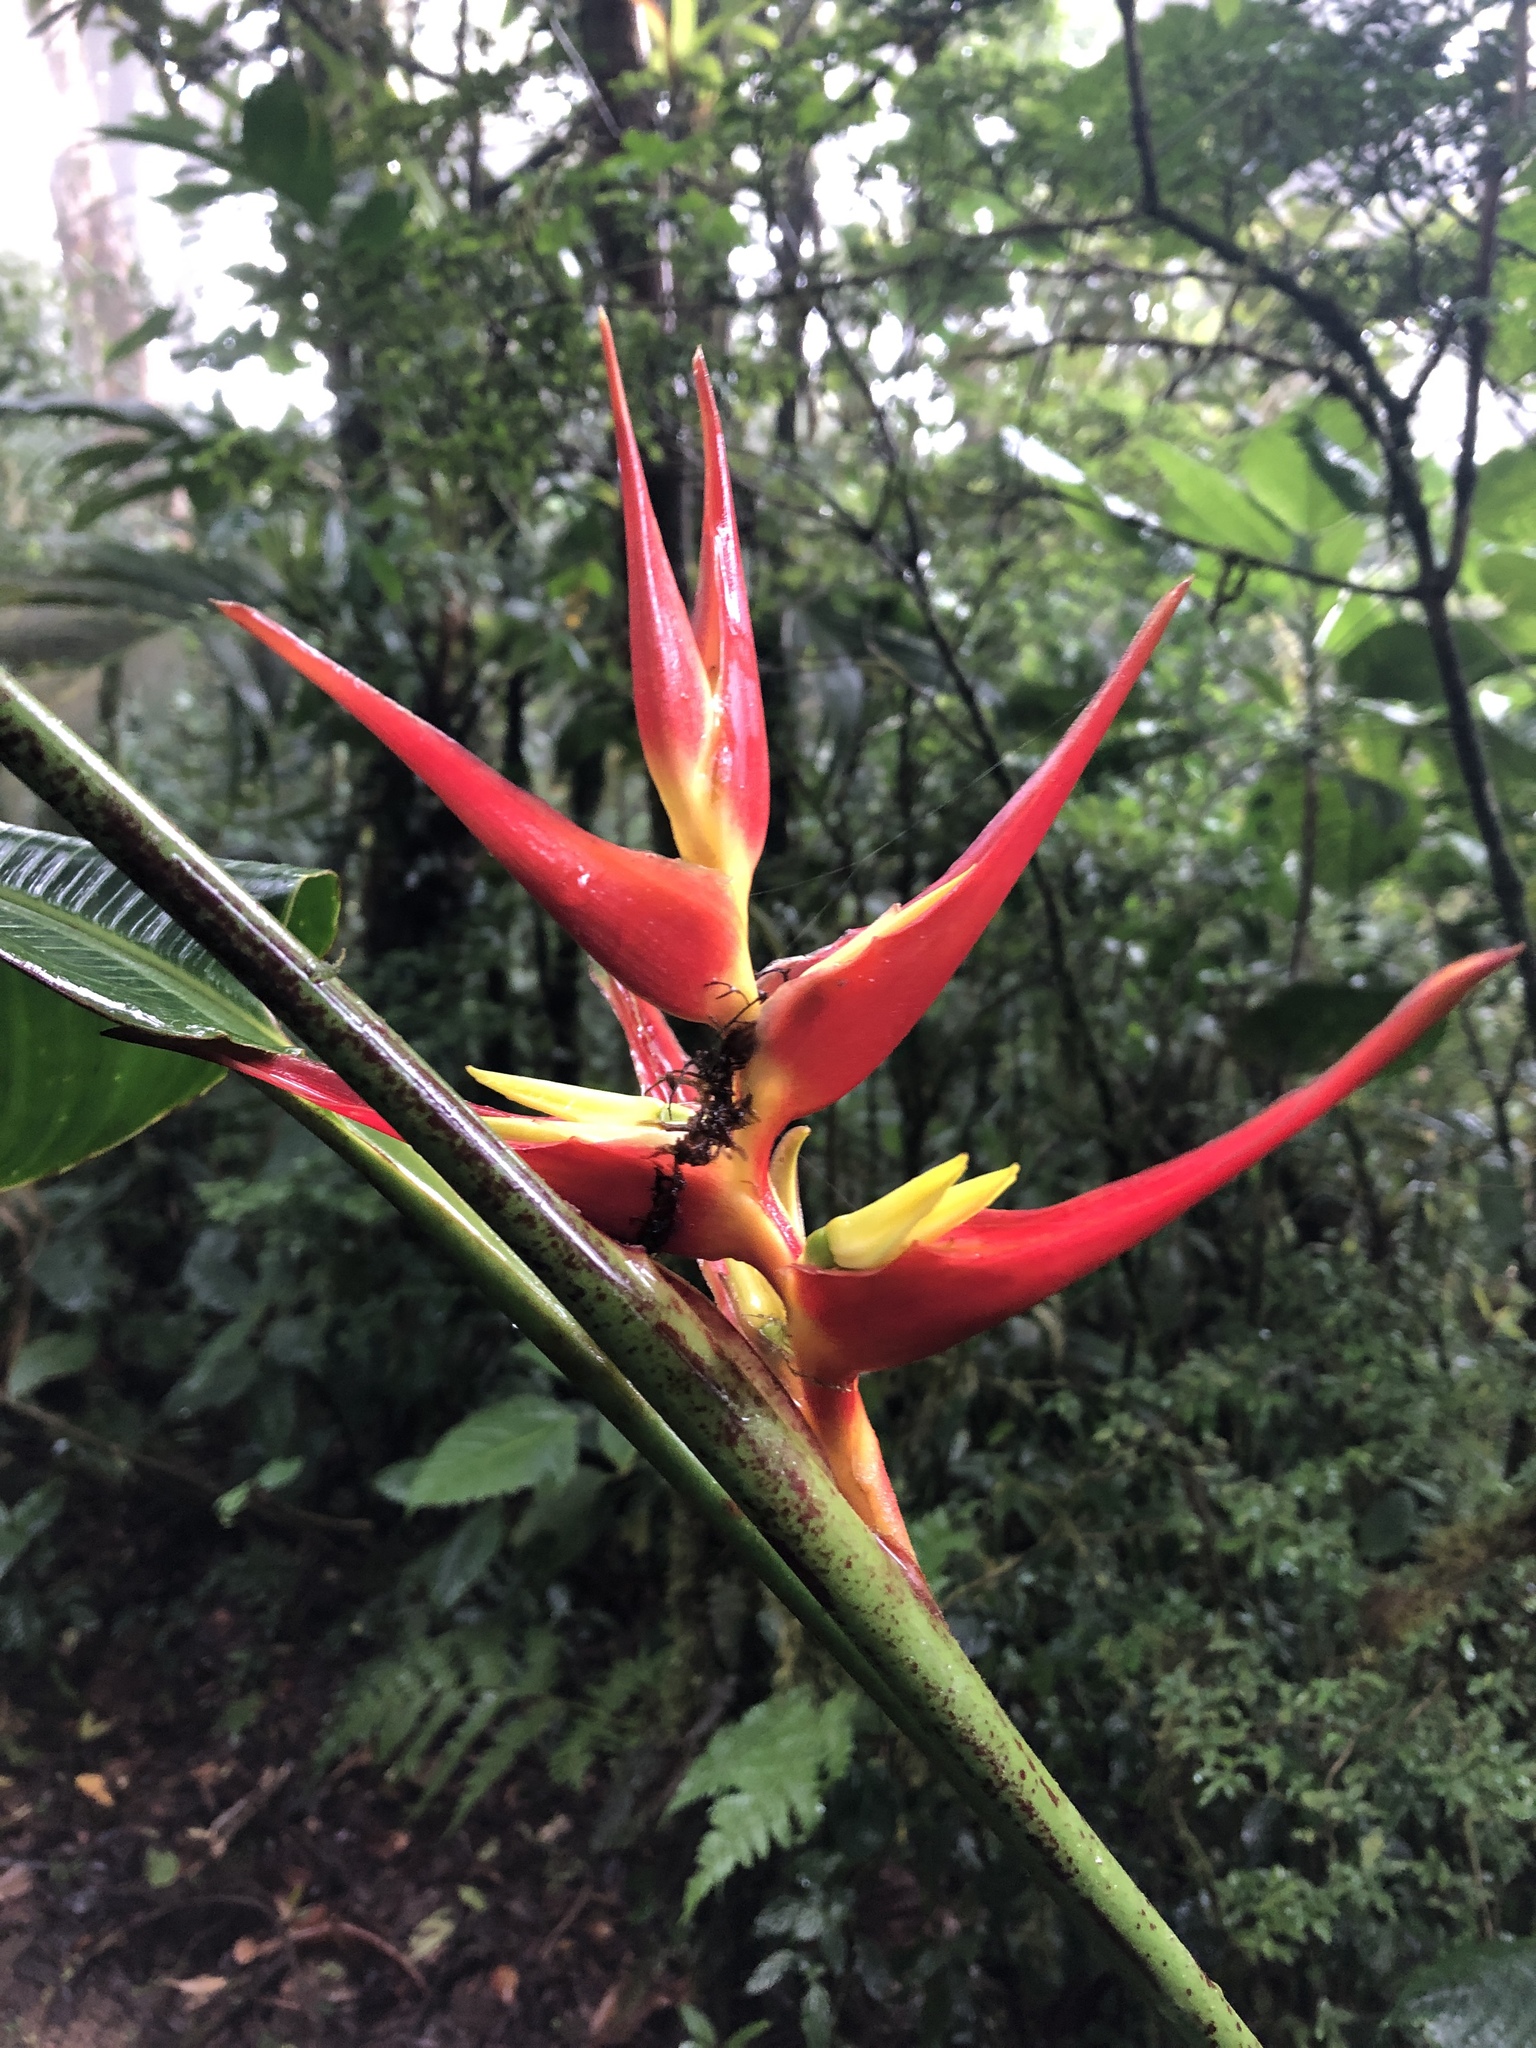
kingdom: Plantae
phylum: Tracheophyta
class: Liliopsida
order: Zingiberales
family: Heliconiaceae
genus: Heliconia
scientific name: Heliconia monteverdensis
